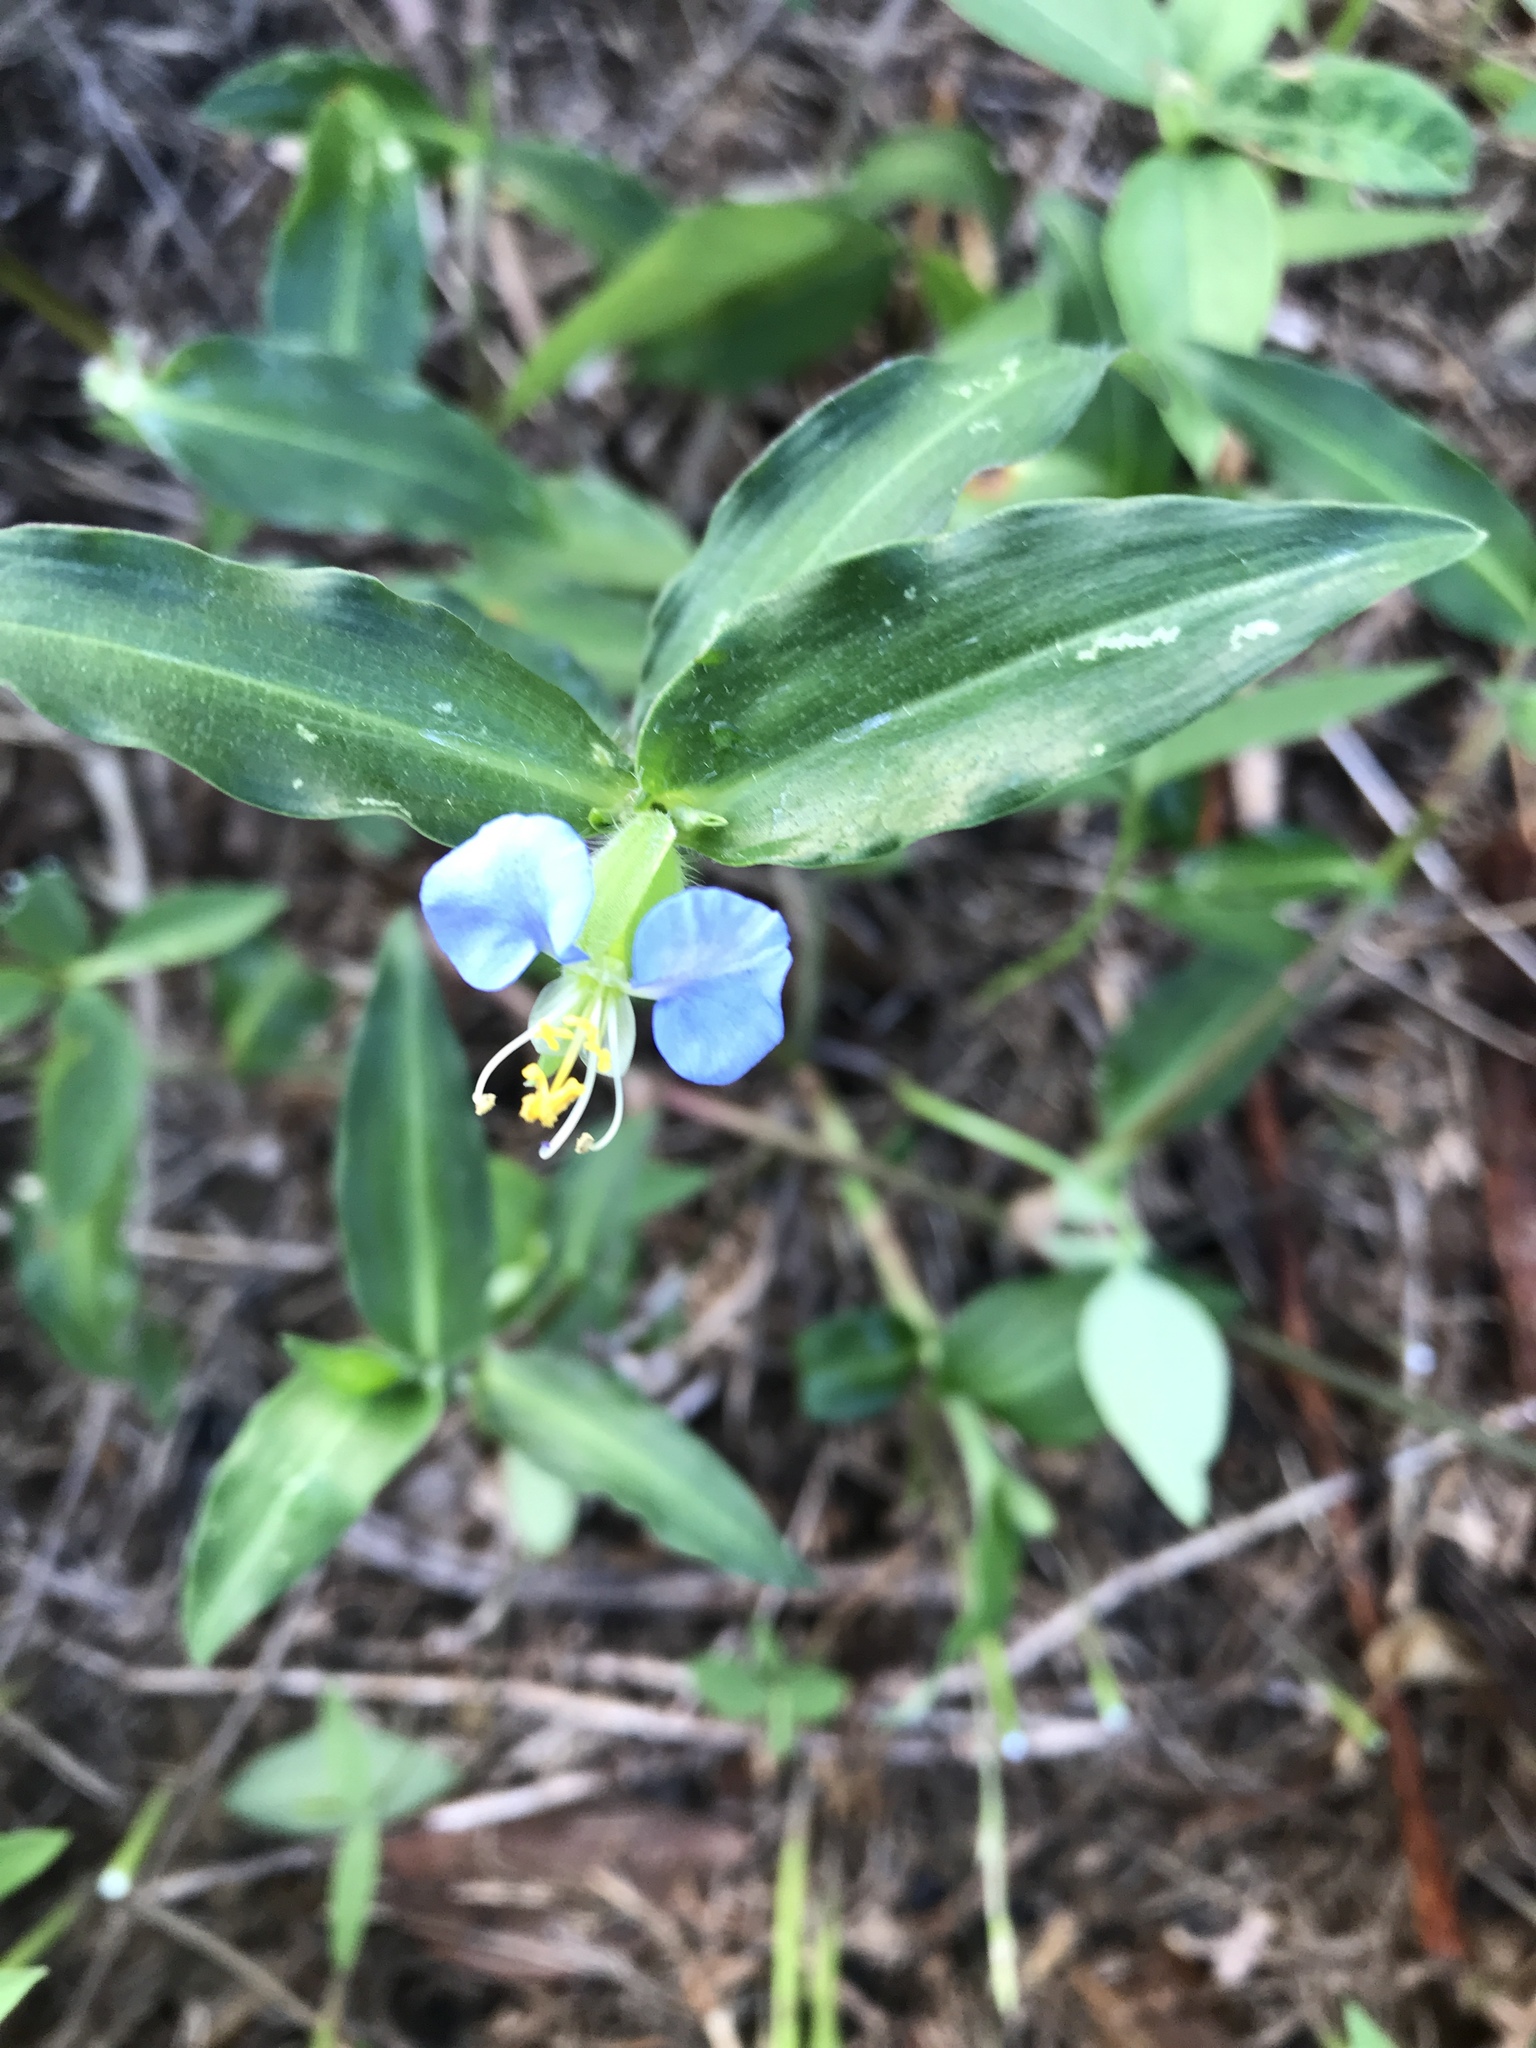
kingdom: Plantae
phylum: Tracheophyta
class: Liliopsida
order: Commelinales
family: Commelinaceae
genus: Commelina
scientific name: Commelina erecta
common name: Blousel blommetjie
